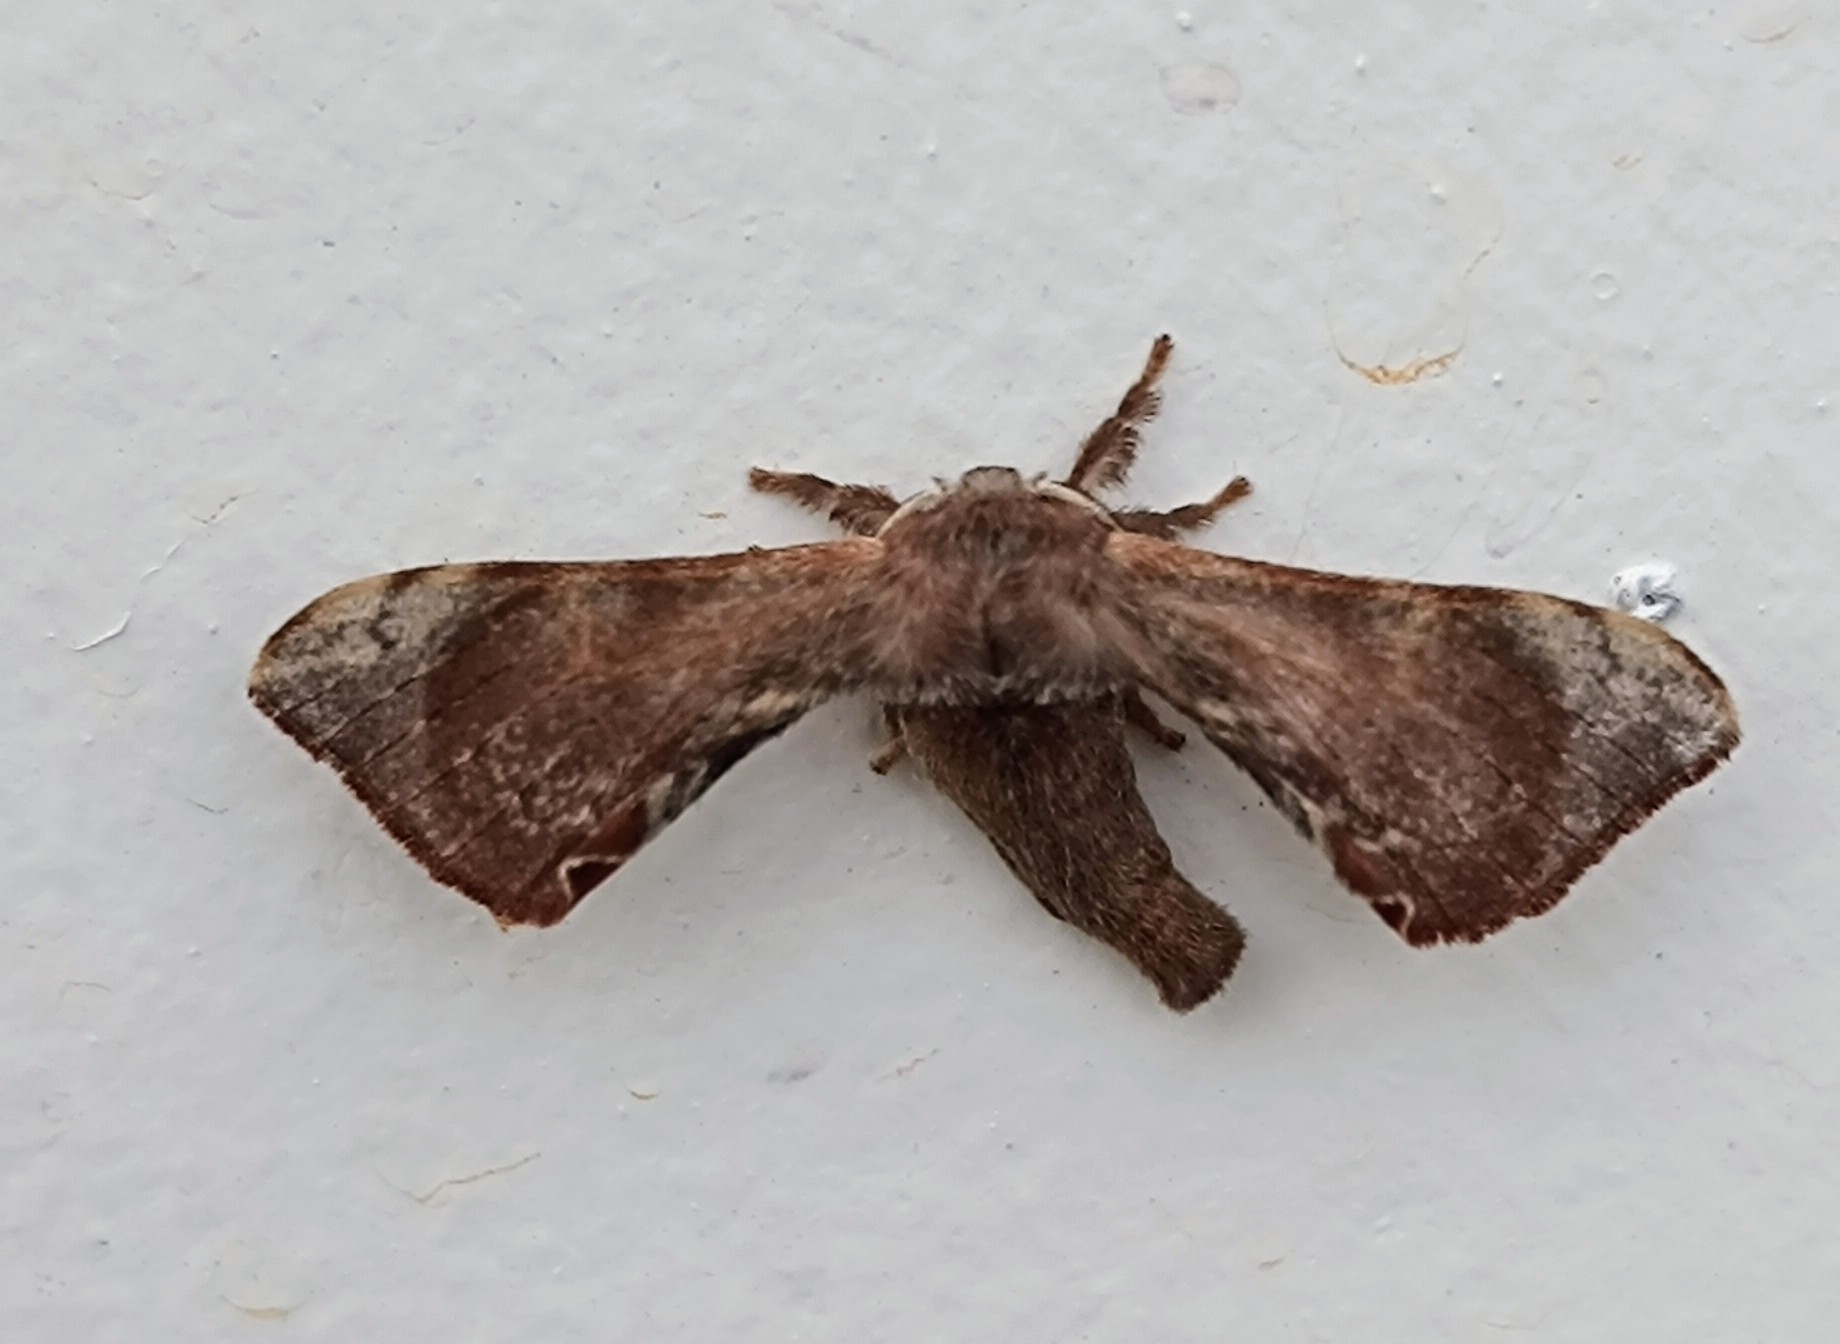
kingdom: Animalia
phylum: Arthropoda
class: Insecta
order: Lepidoptera
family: Bombycidae
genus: Trilocha
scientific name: Trilocha varians
